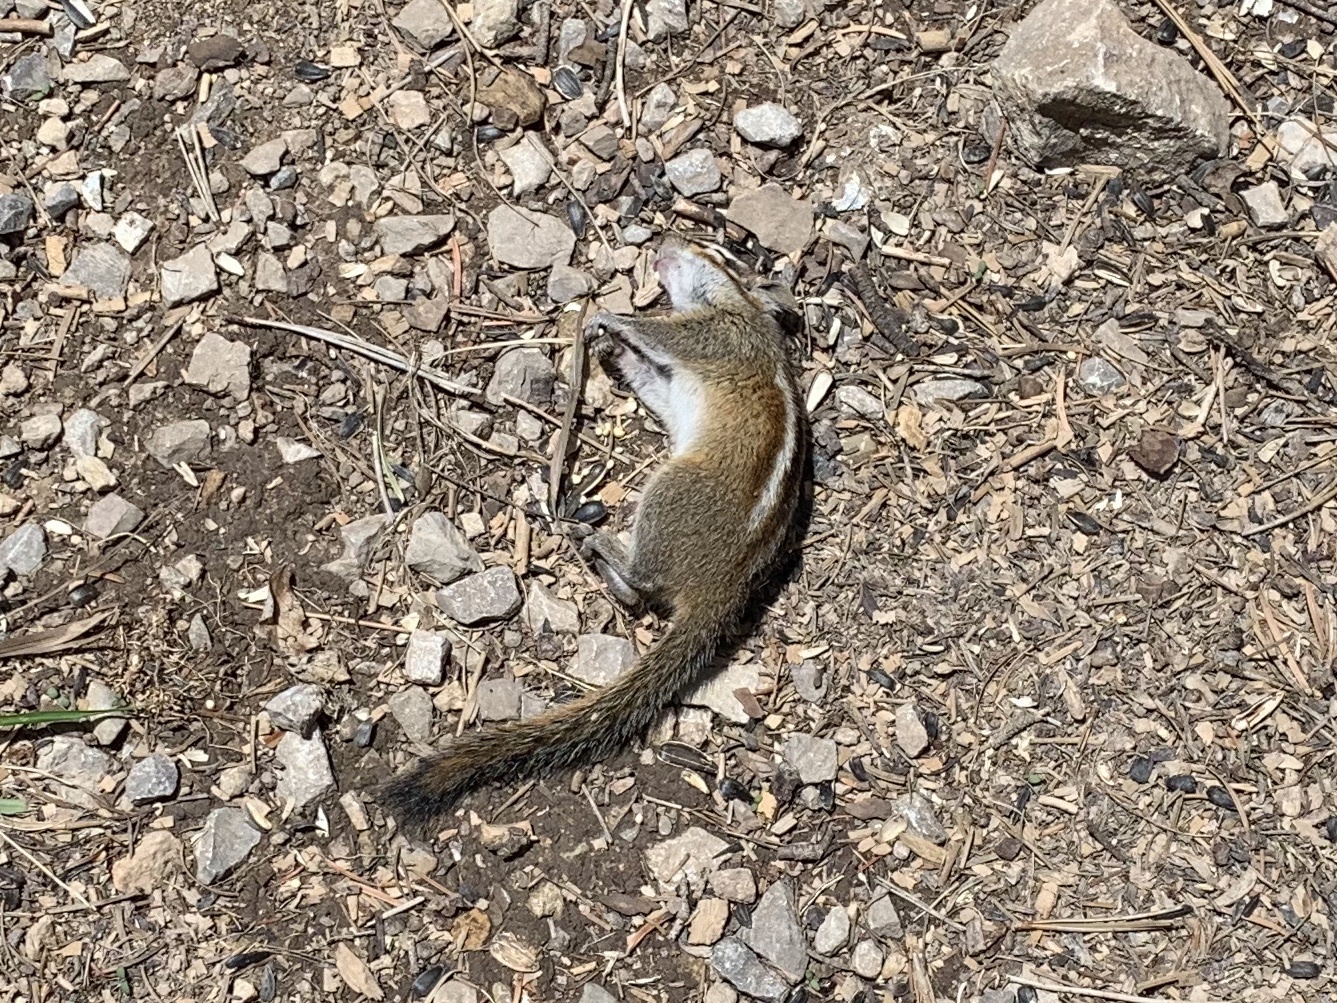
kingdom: Animalia
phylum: Chordata
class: Mammalia
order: Rodentia
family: Sciuridae
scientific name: Sciuridae
